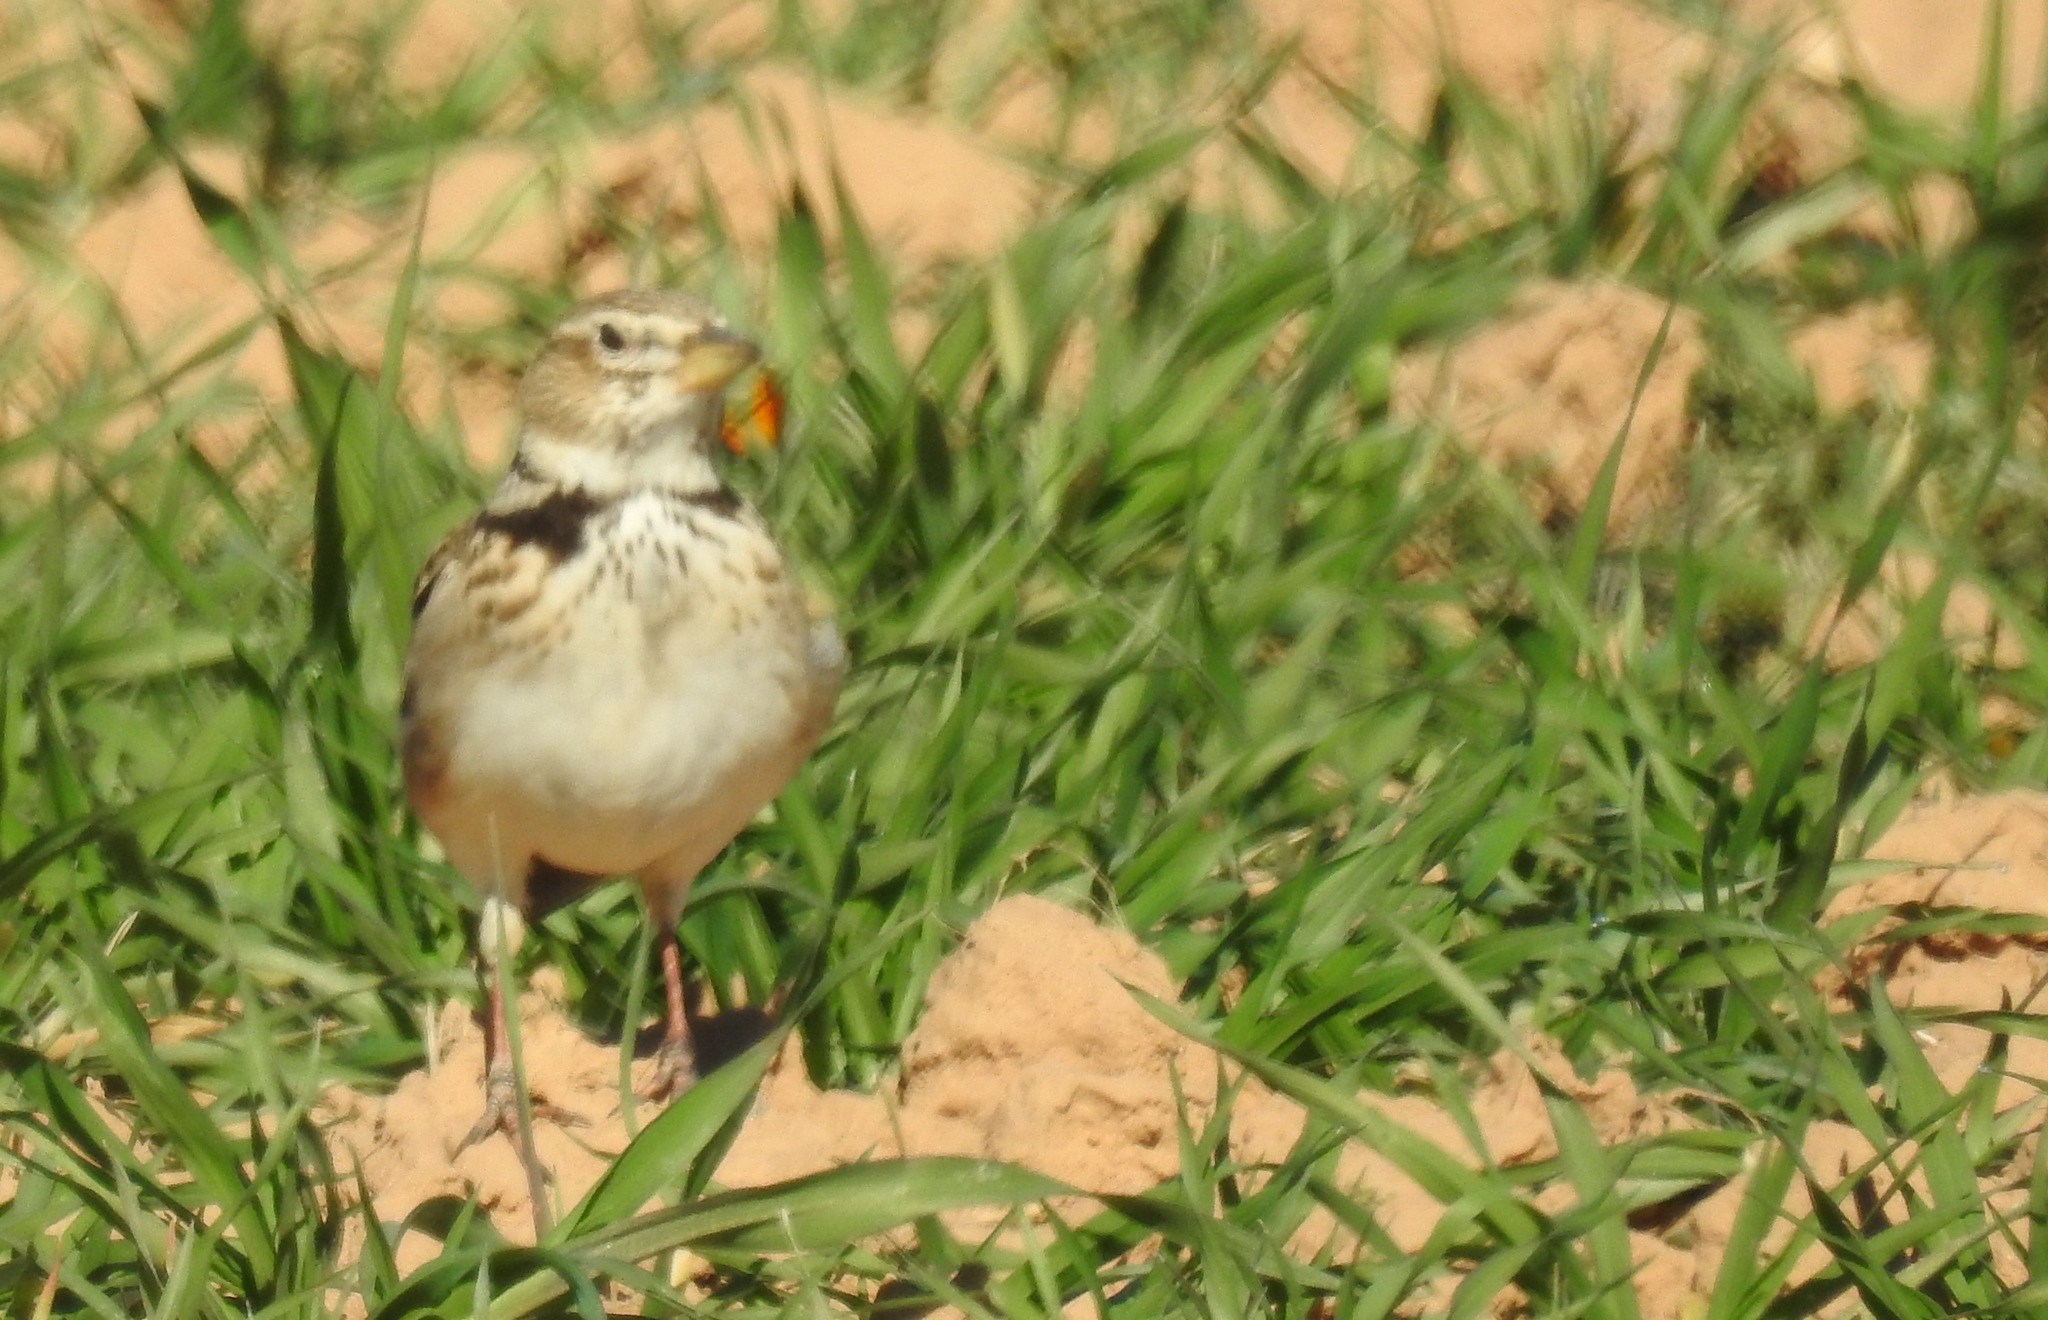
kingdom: Animalia
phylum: Chordata
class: Aves
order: Passeriformes
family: Alaudidae
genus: Melanocorypha
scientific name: Melanocorypha calandra
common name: Calandra lark
